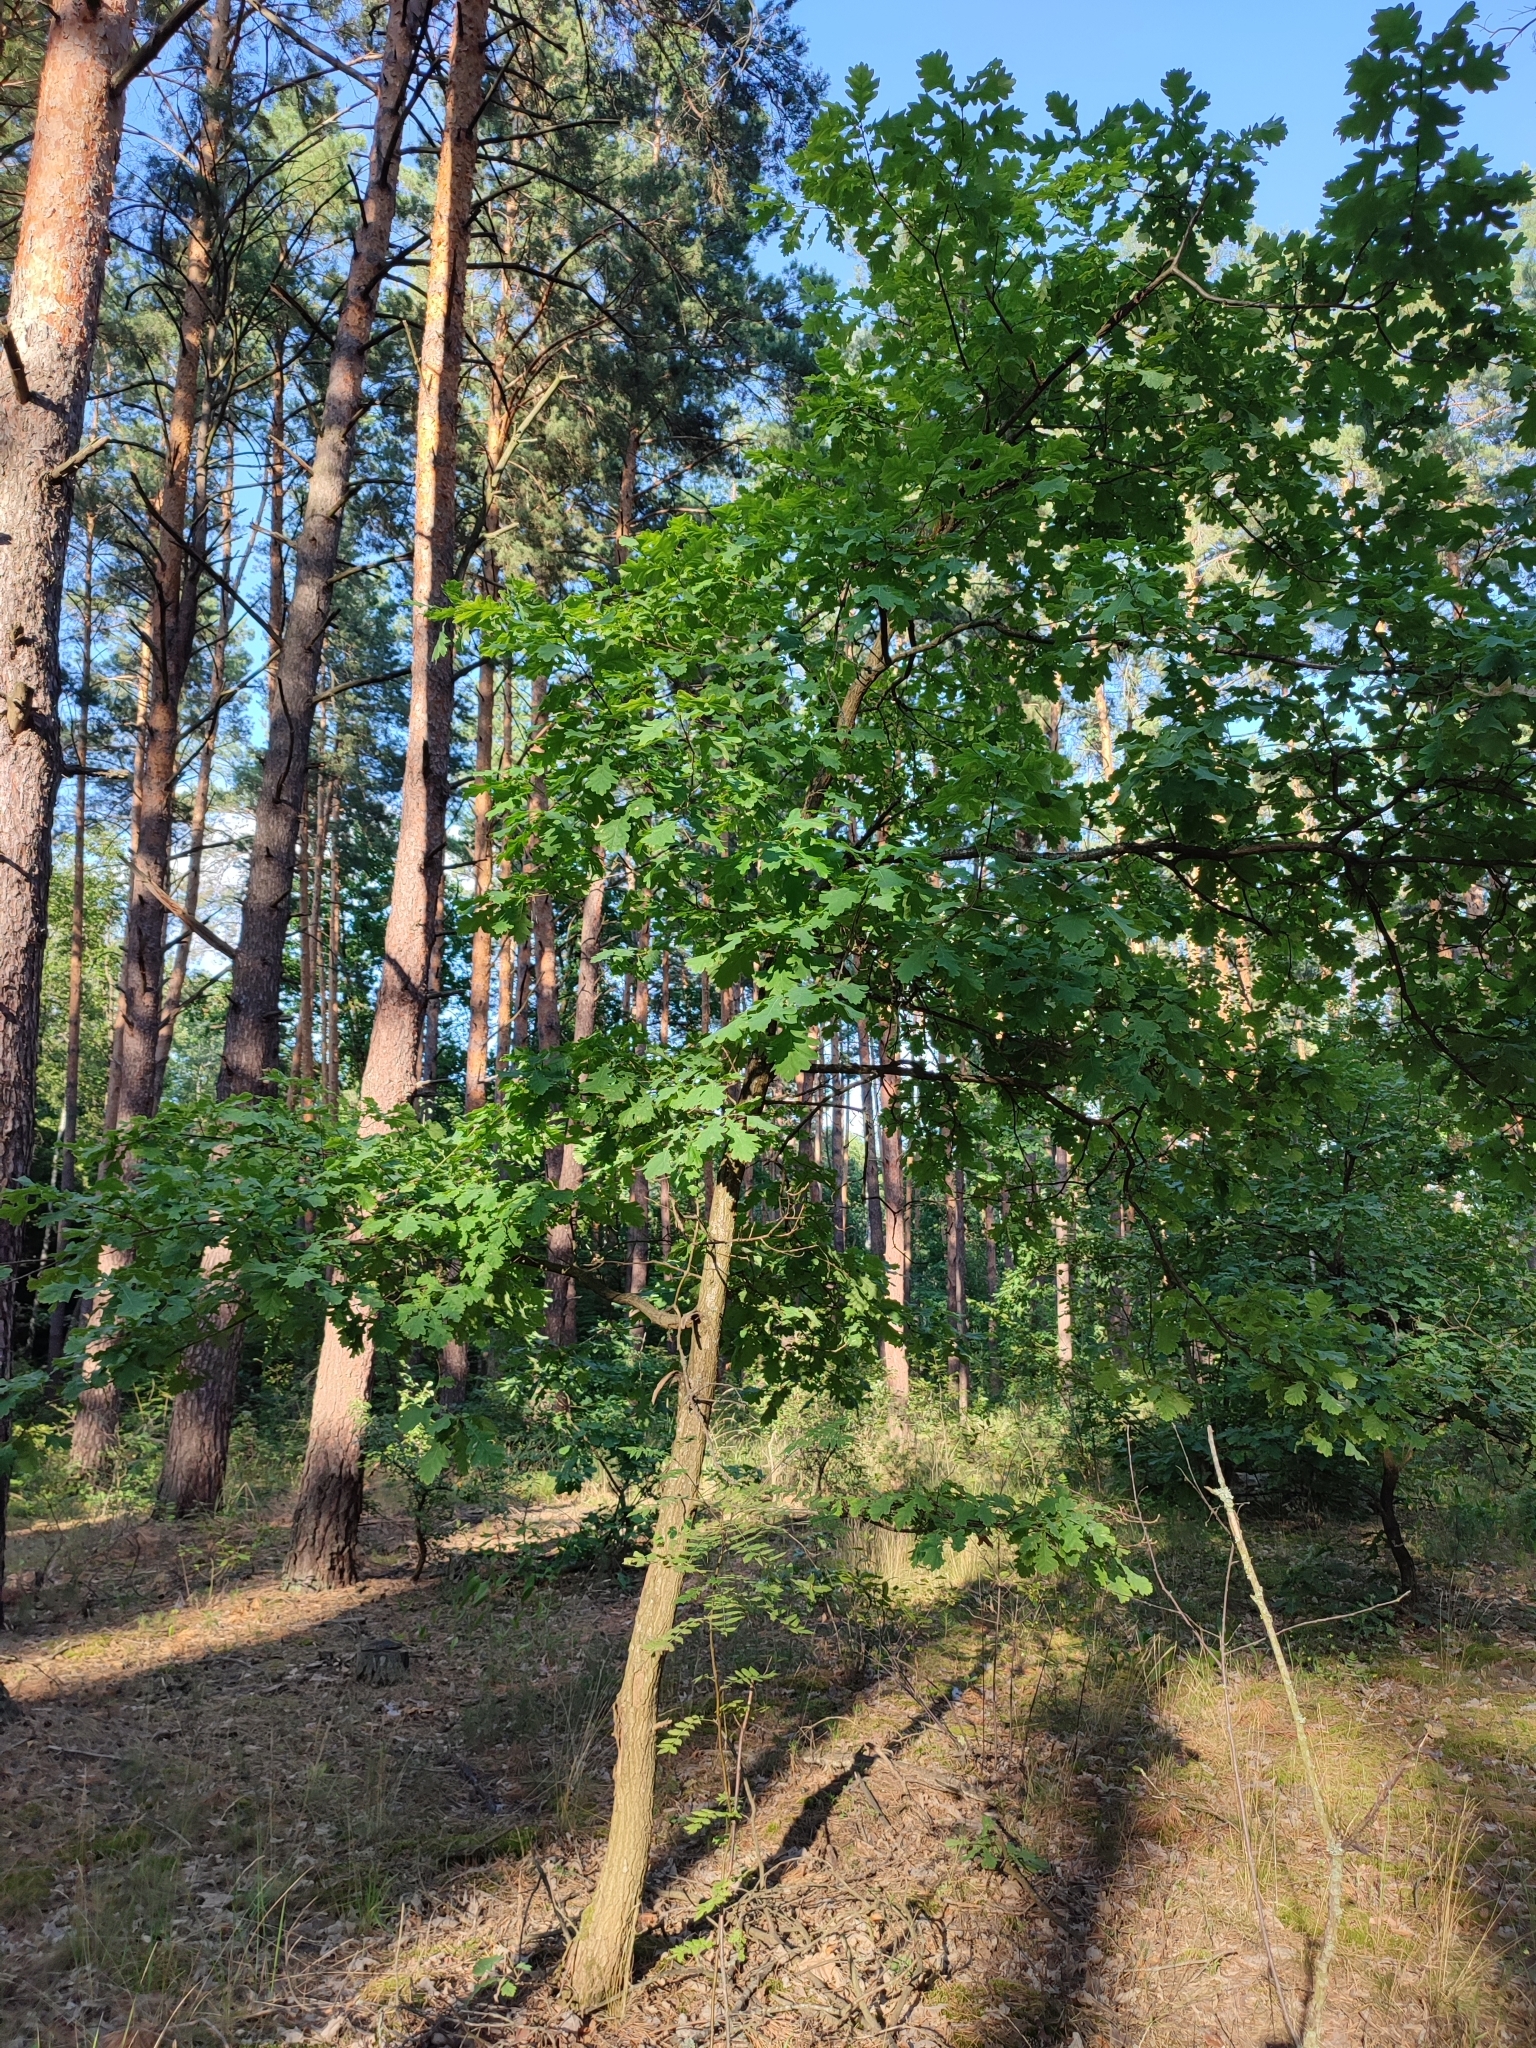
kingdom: Plantae
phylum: Tracheophyta
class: Magnoliopsida
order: Fagales
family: Fagaceae
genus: Quercus
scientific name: Quercus robur
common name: Pedunculate oak
